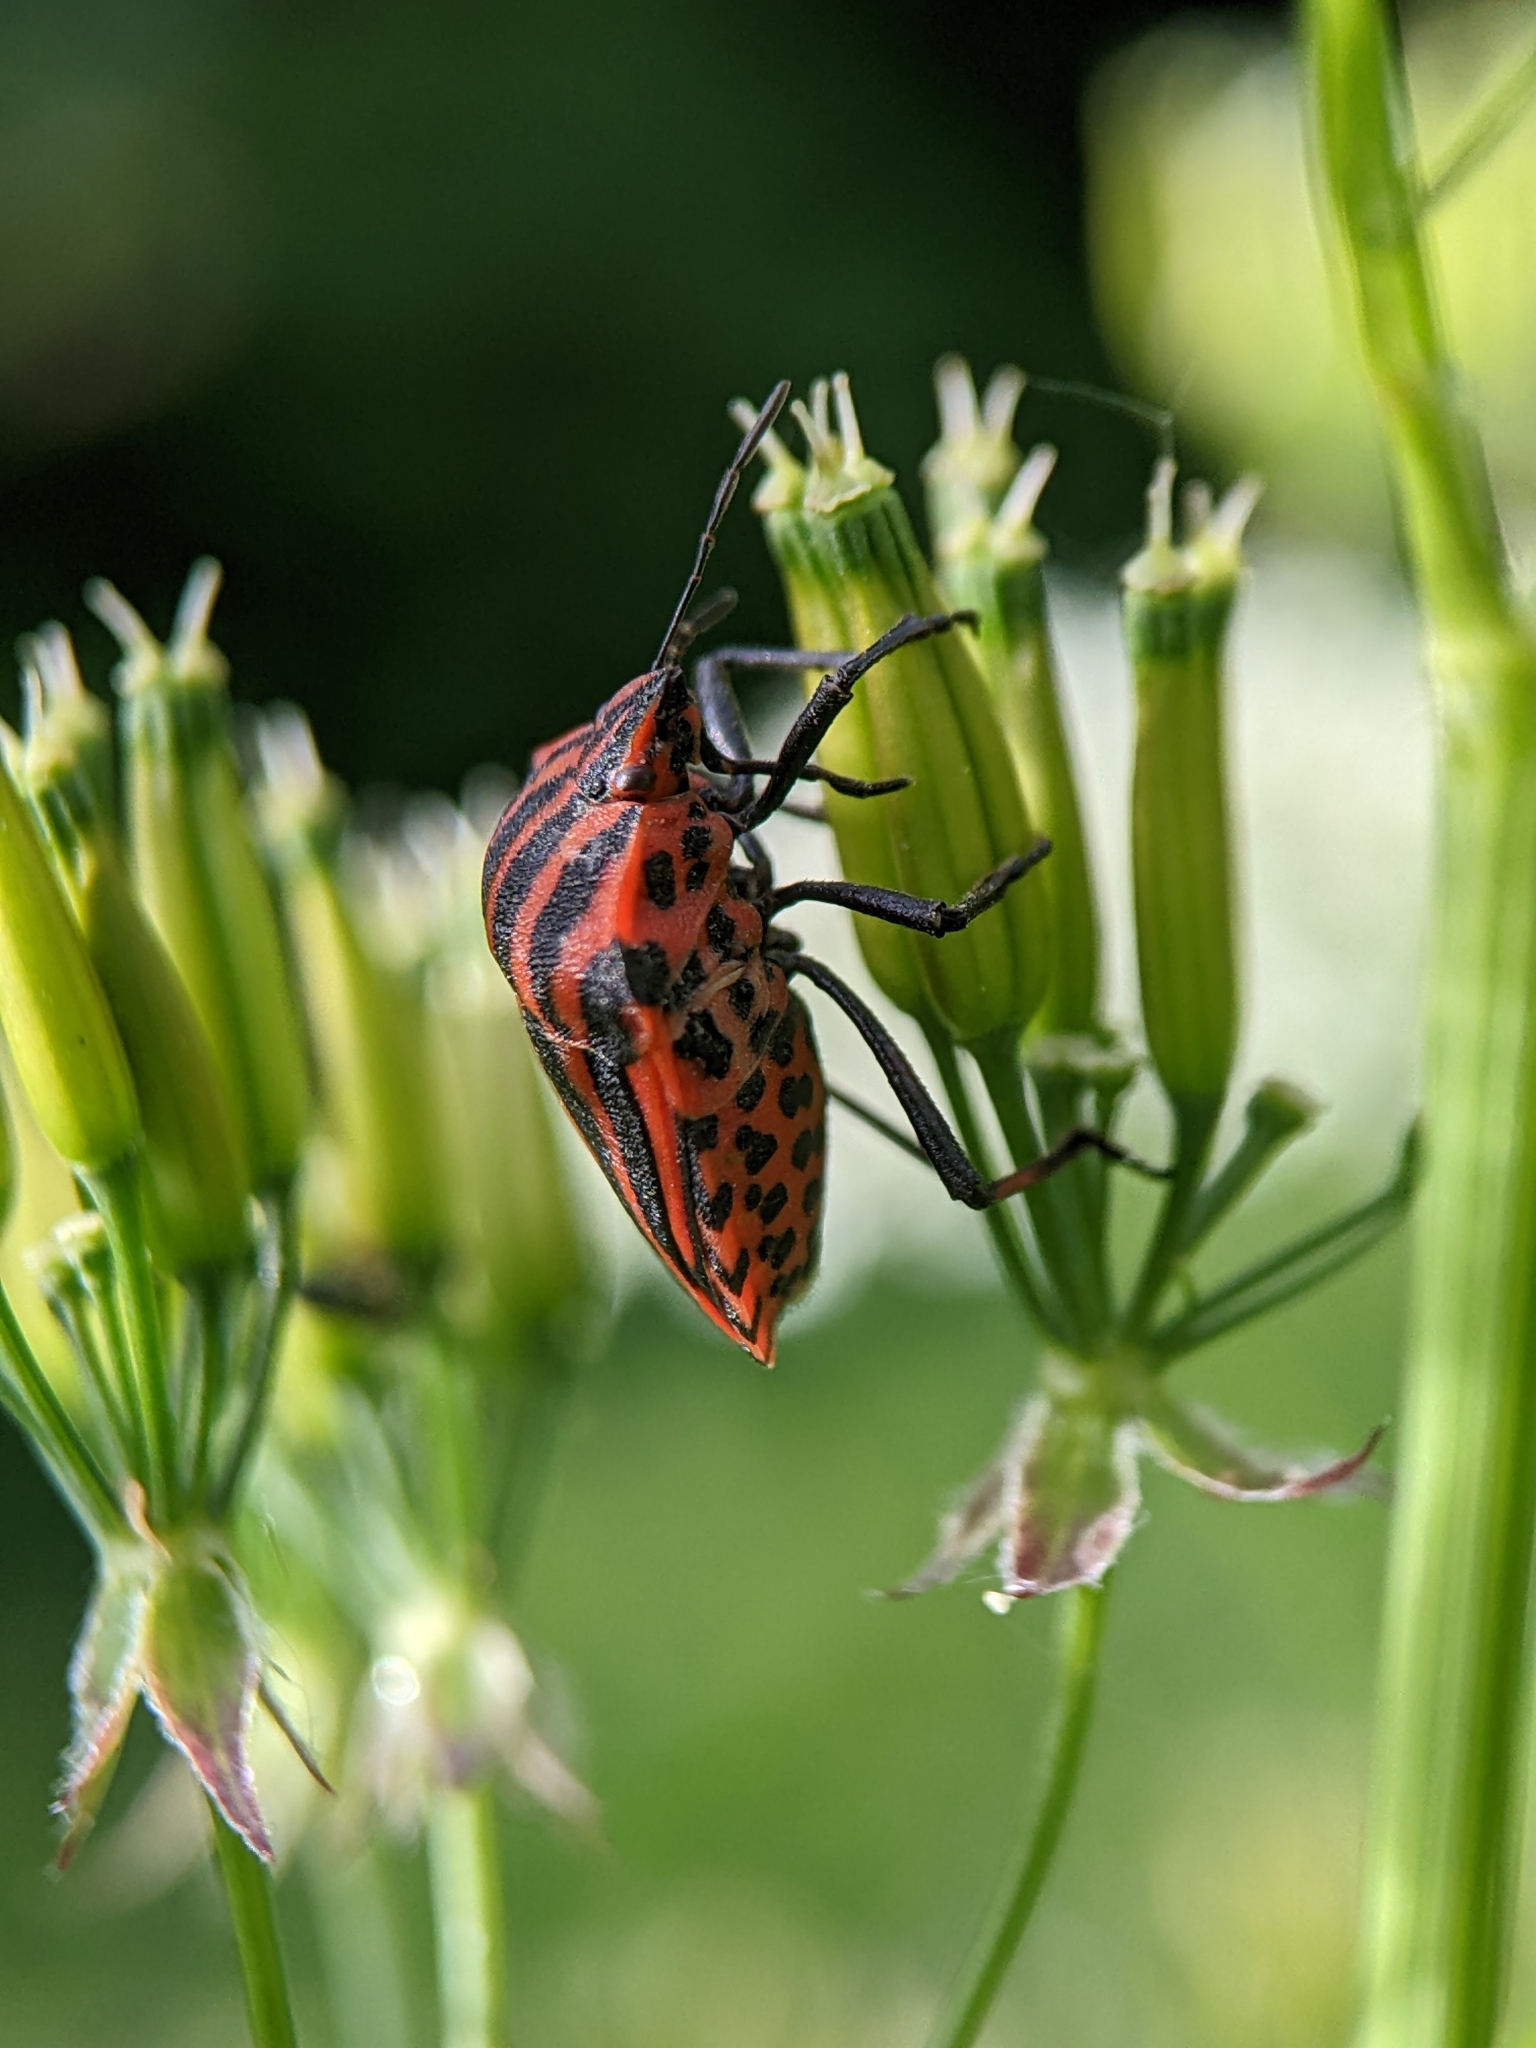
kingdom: Animalia
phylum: Arthropoda
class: Insecta
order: Hemiptera
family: Pentatomidae
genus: Graphosoma
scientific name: Graphosoma italicum
